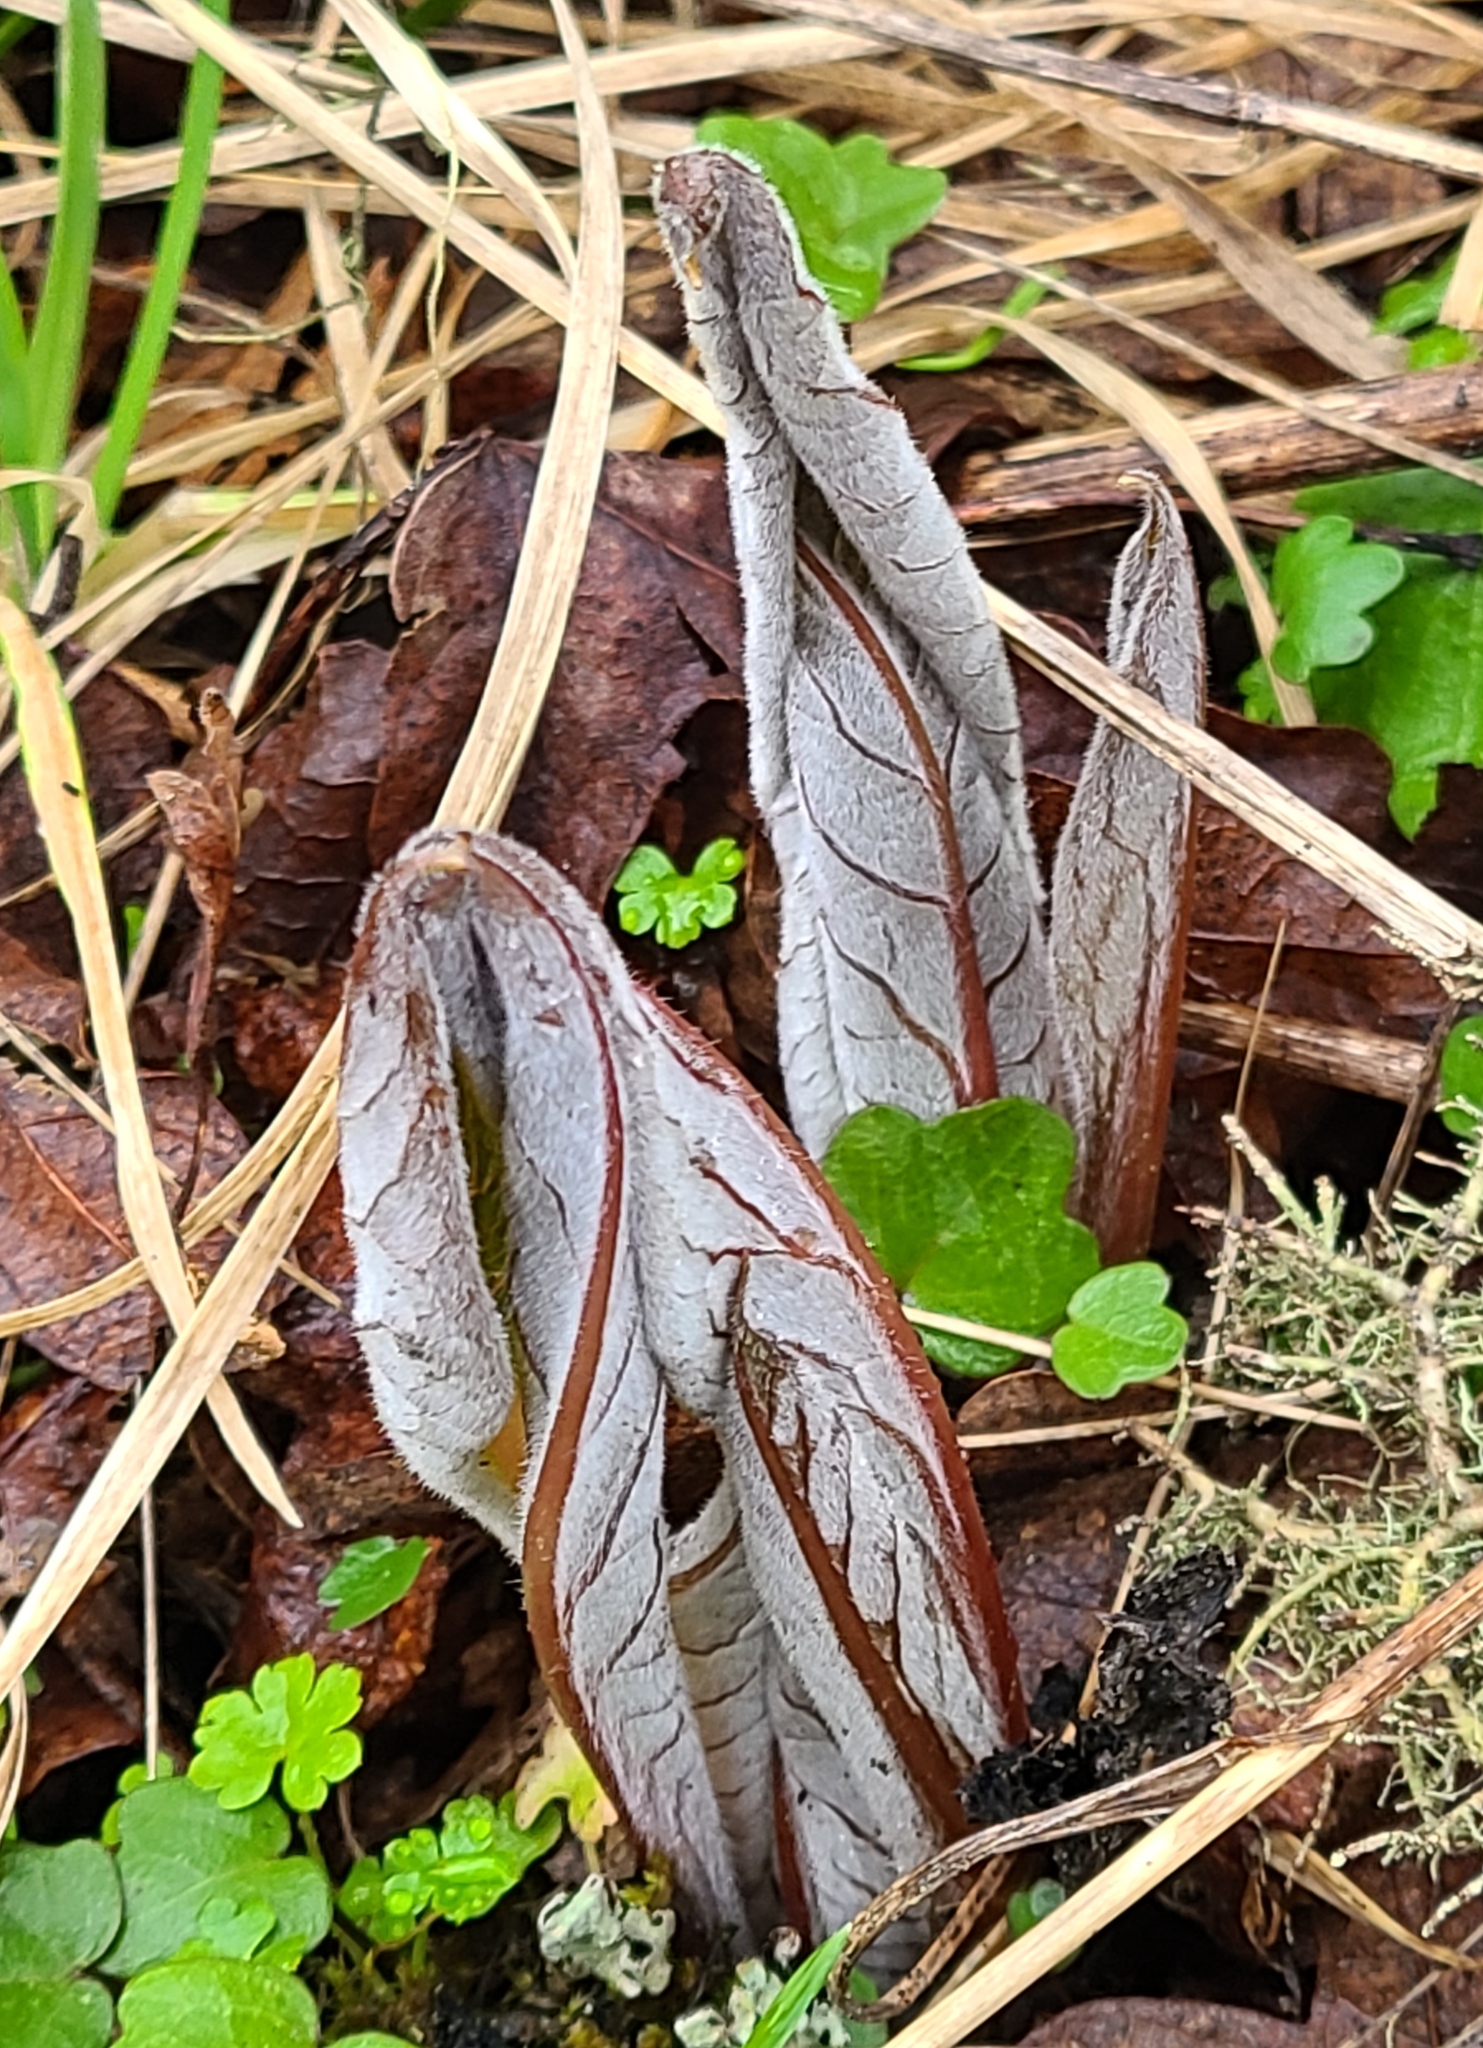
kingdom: Plantae
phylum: Tracheophyta
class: Magnoliopsida
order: Boraginales
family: Boraginaceae
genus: Adelinia
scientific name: Adelinia grande
